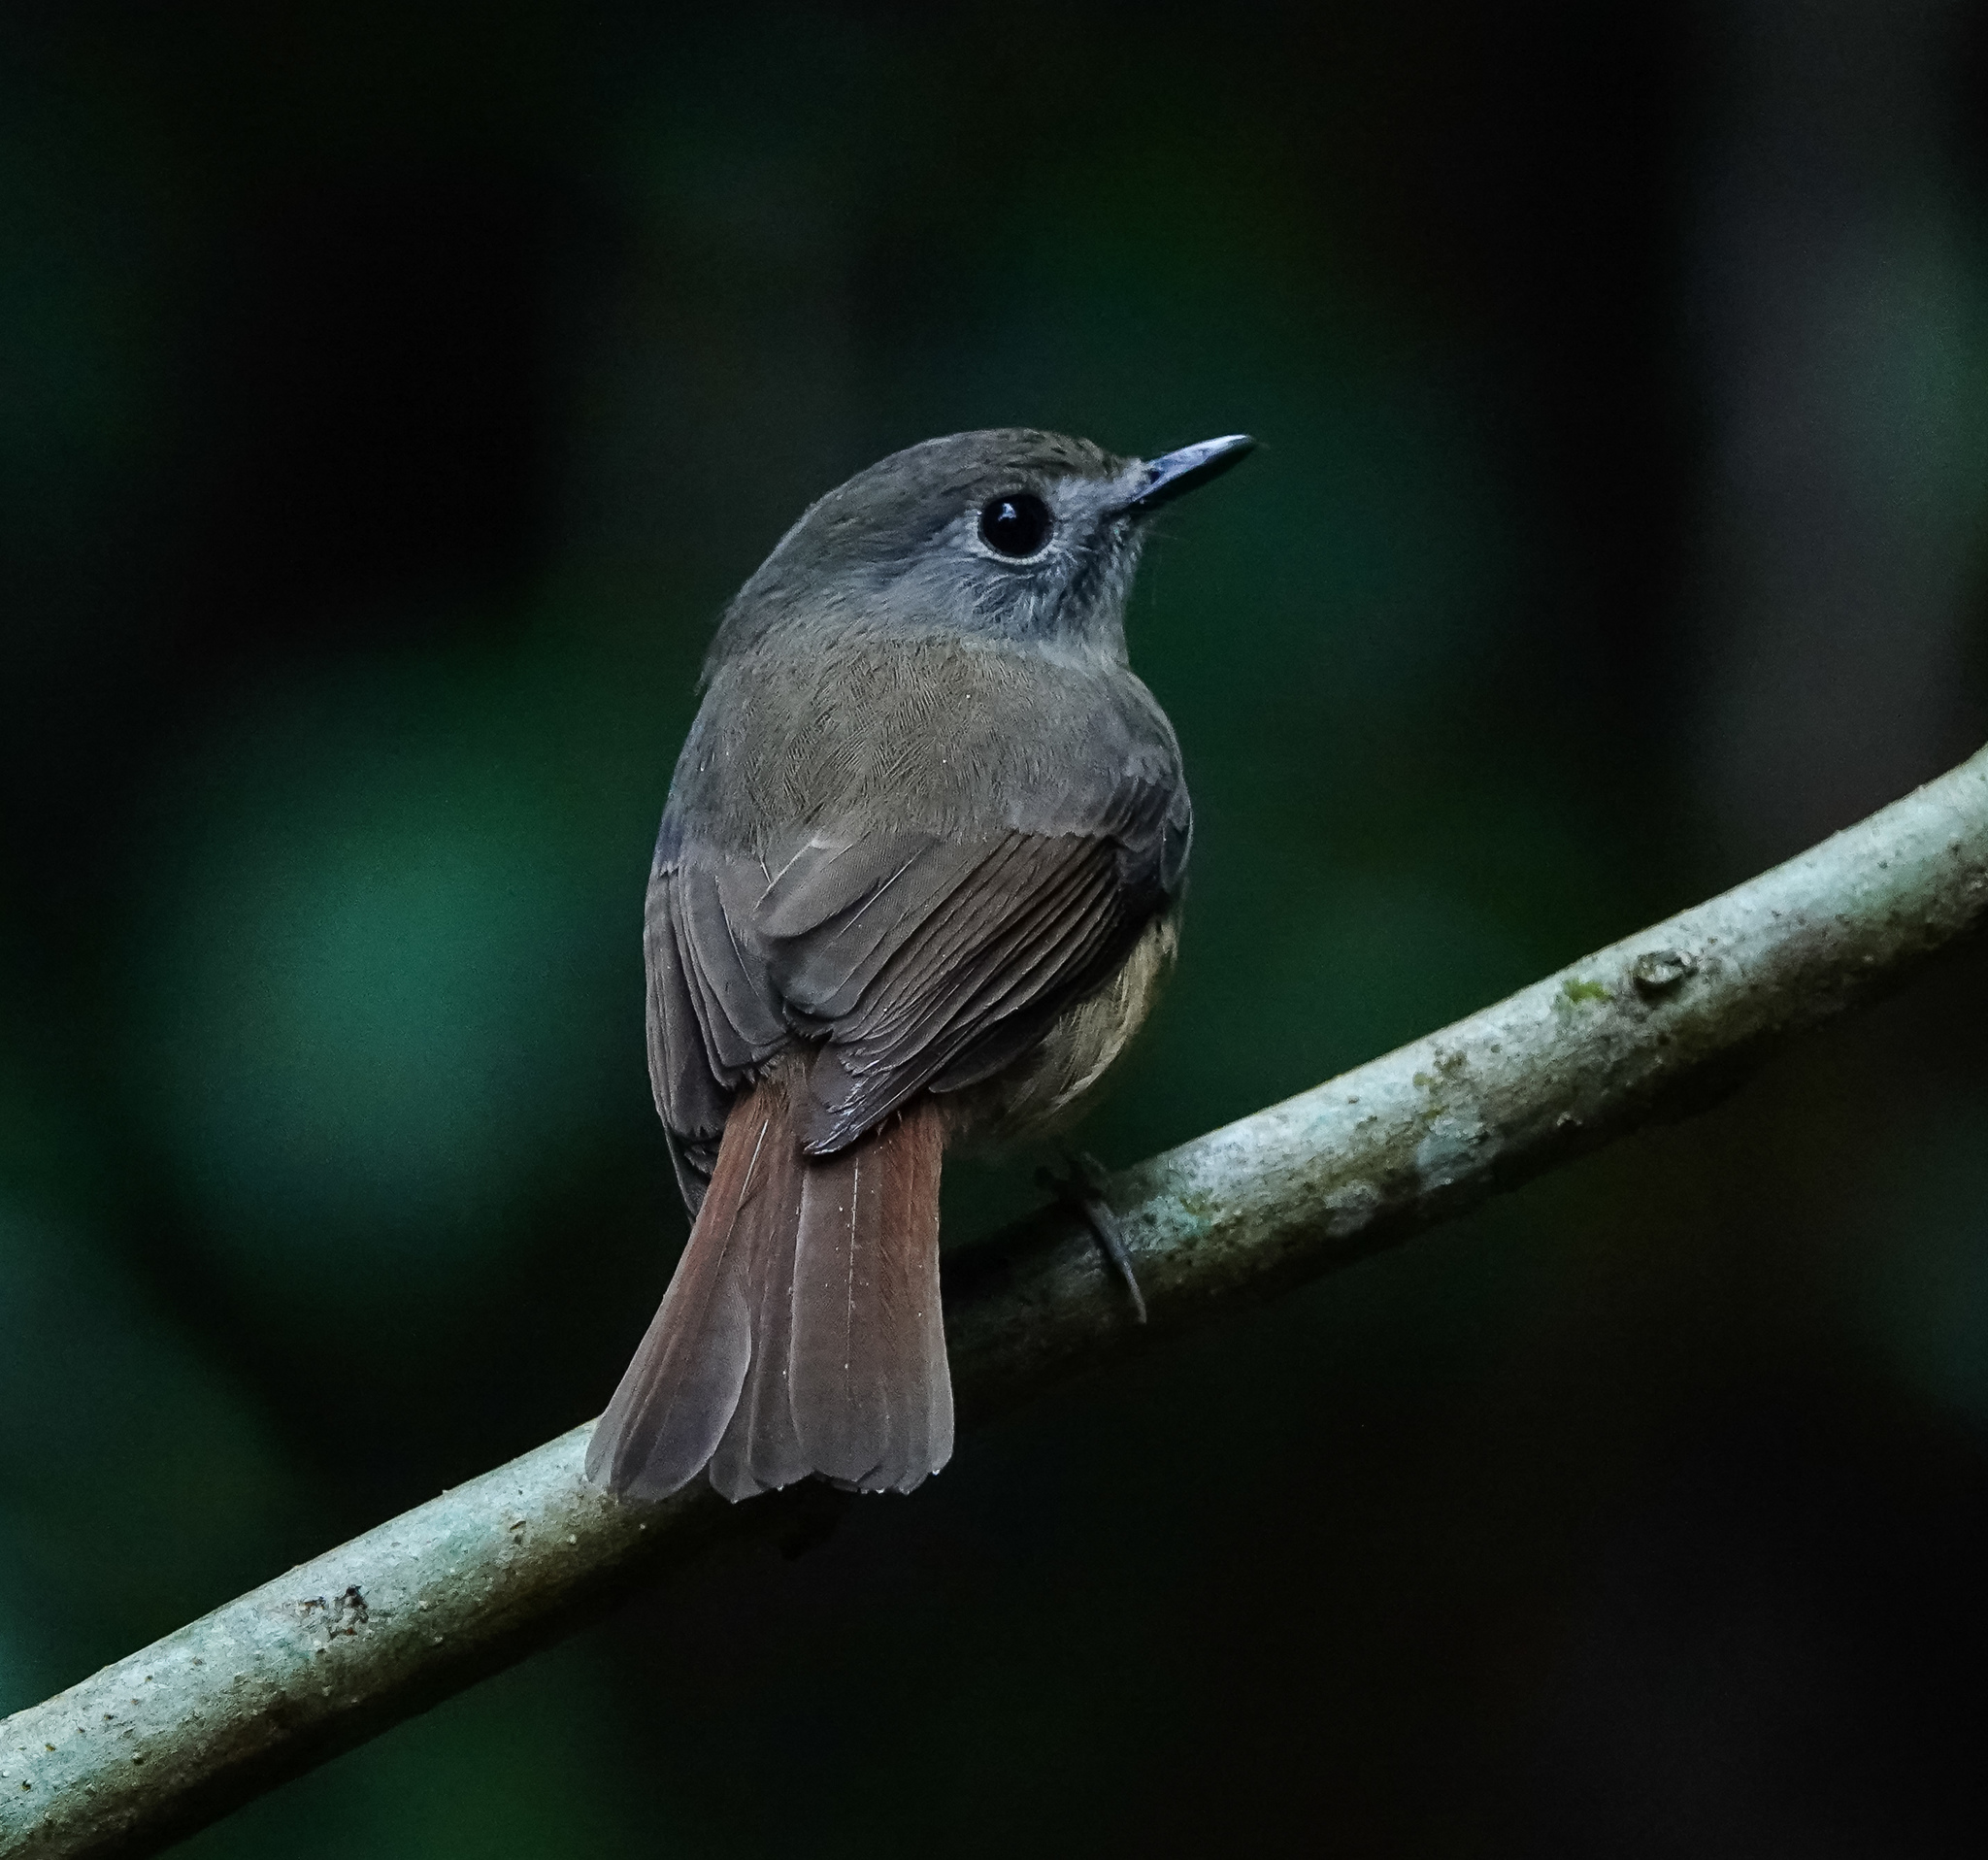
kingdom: Animalia
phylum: Chordata
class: Aves
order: Passeriformes
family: Muscicapidae
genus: Cyornis
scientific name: Cyornis poliogenys
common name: Pale-chinned blue flycatcher
